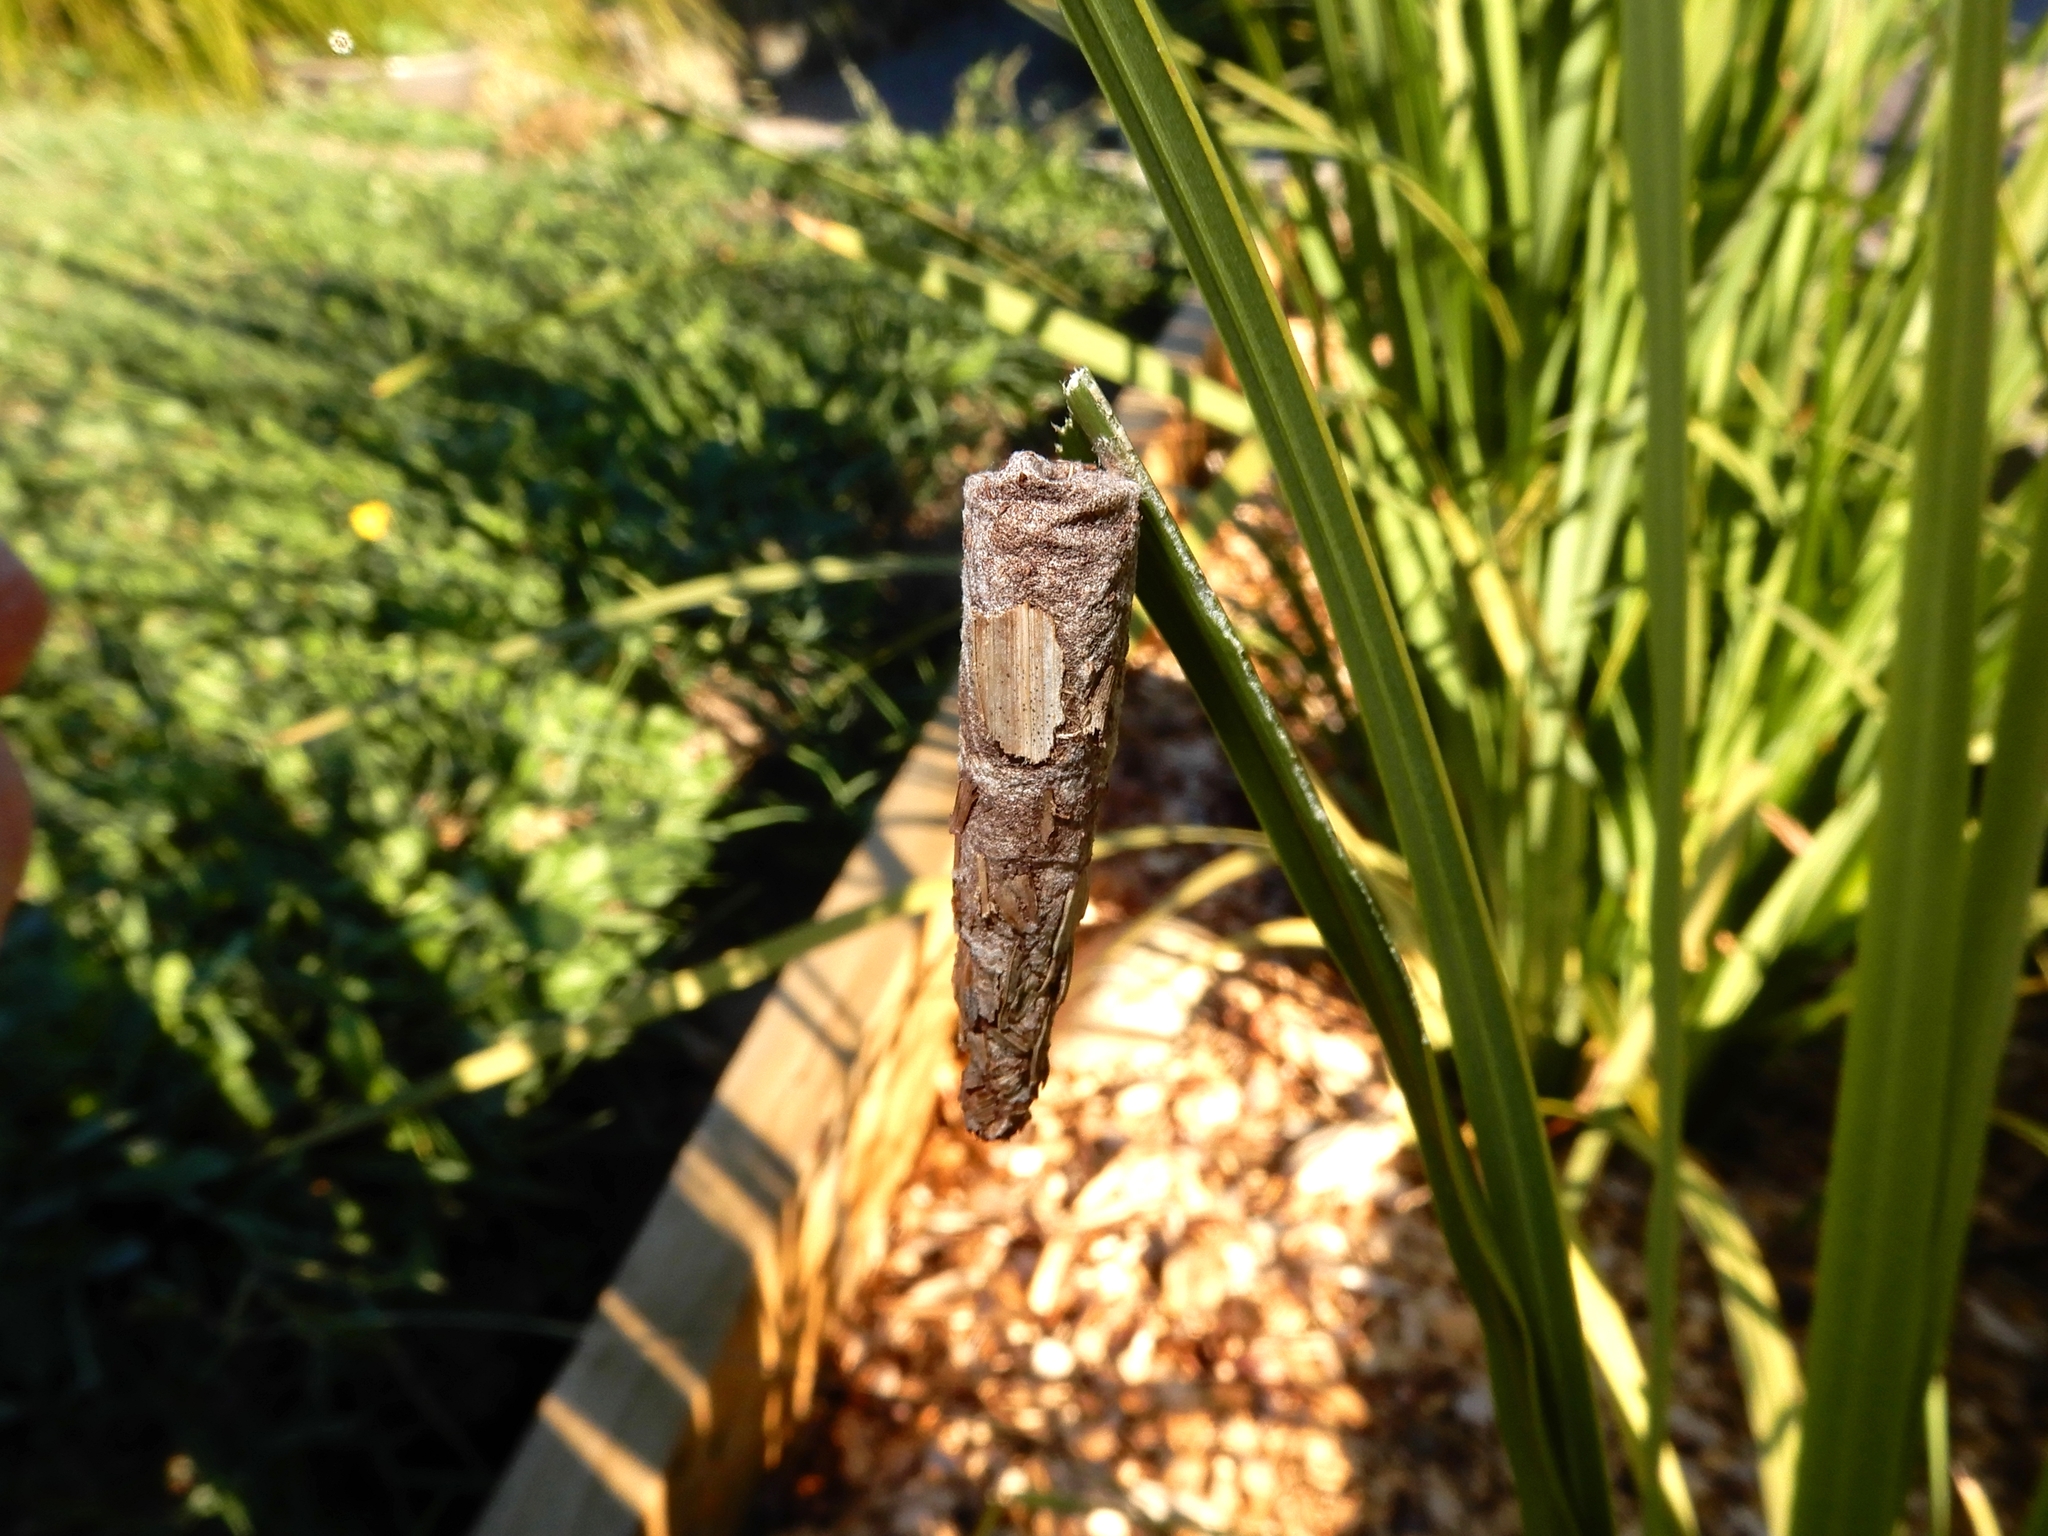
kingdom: Animalia
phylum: Arthropoda
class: Insecta
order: Lepidoptera
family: Psychidae
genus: Liothula
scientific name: Liothula omnivora
